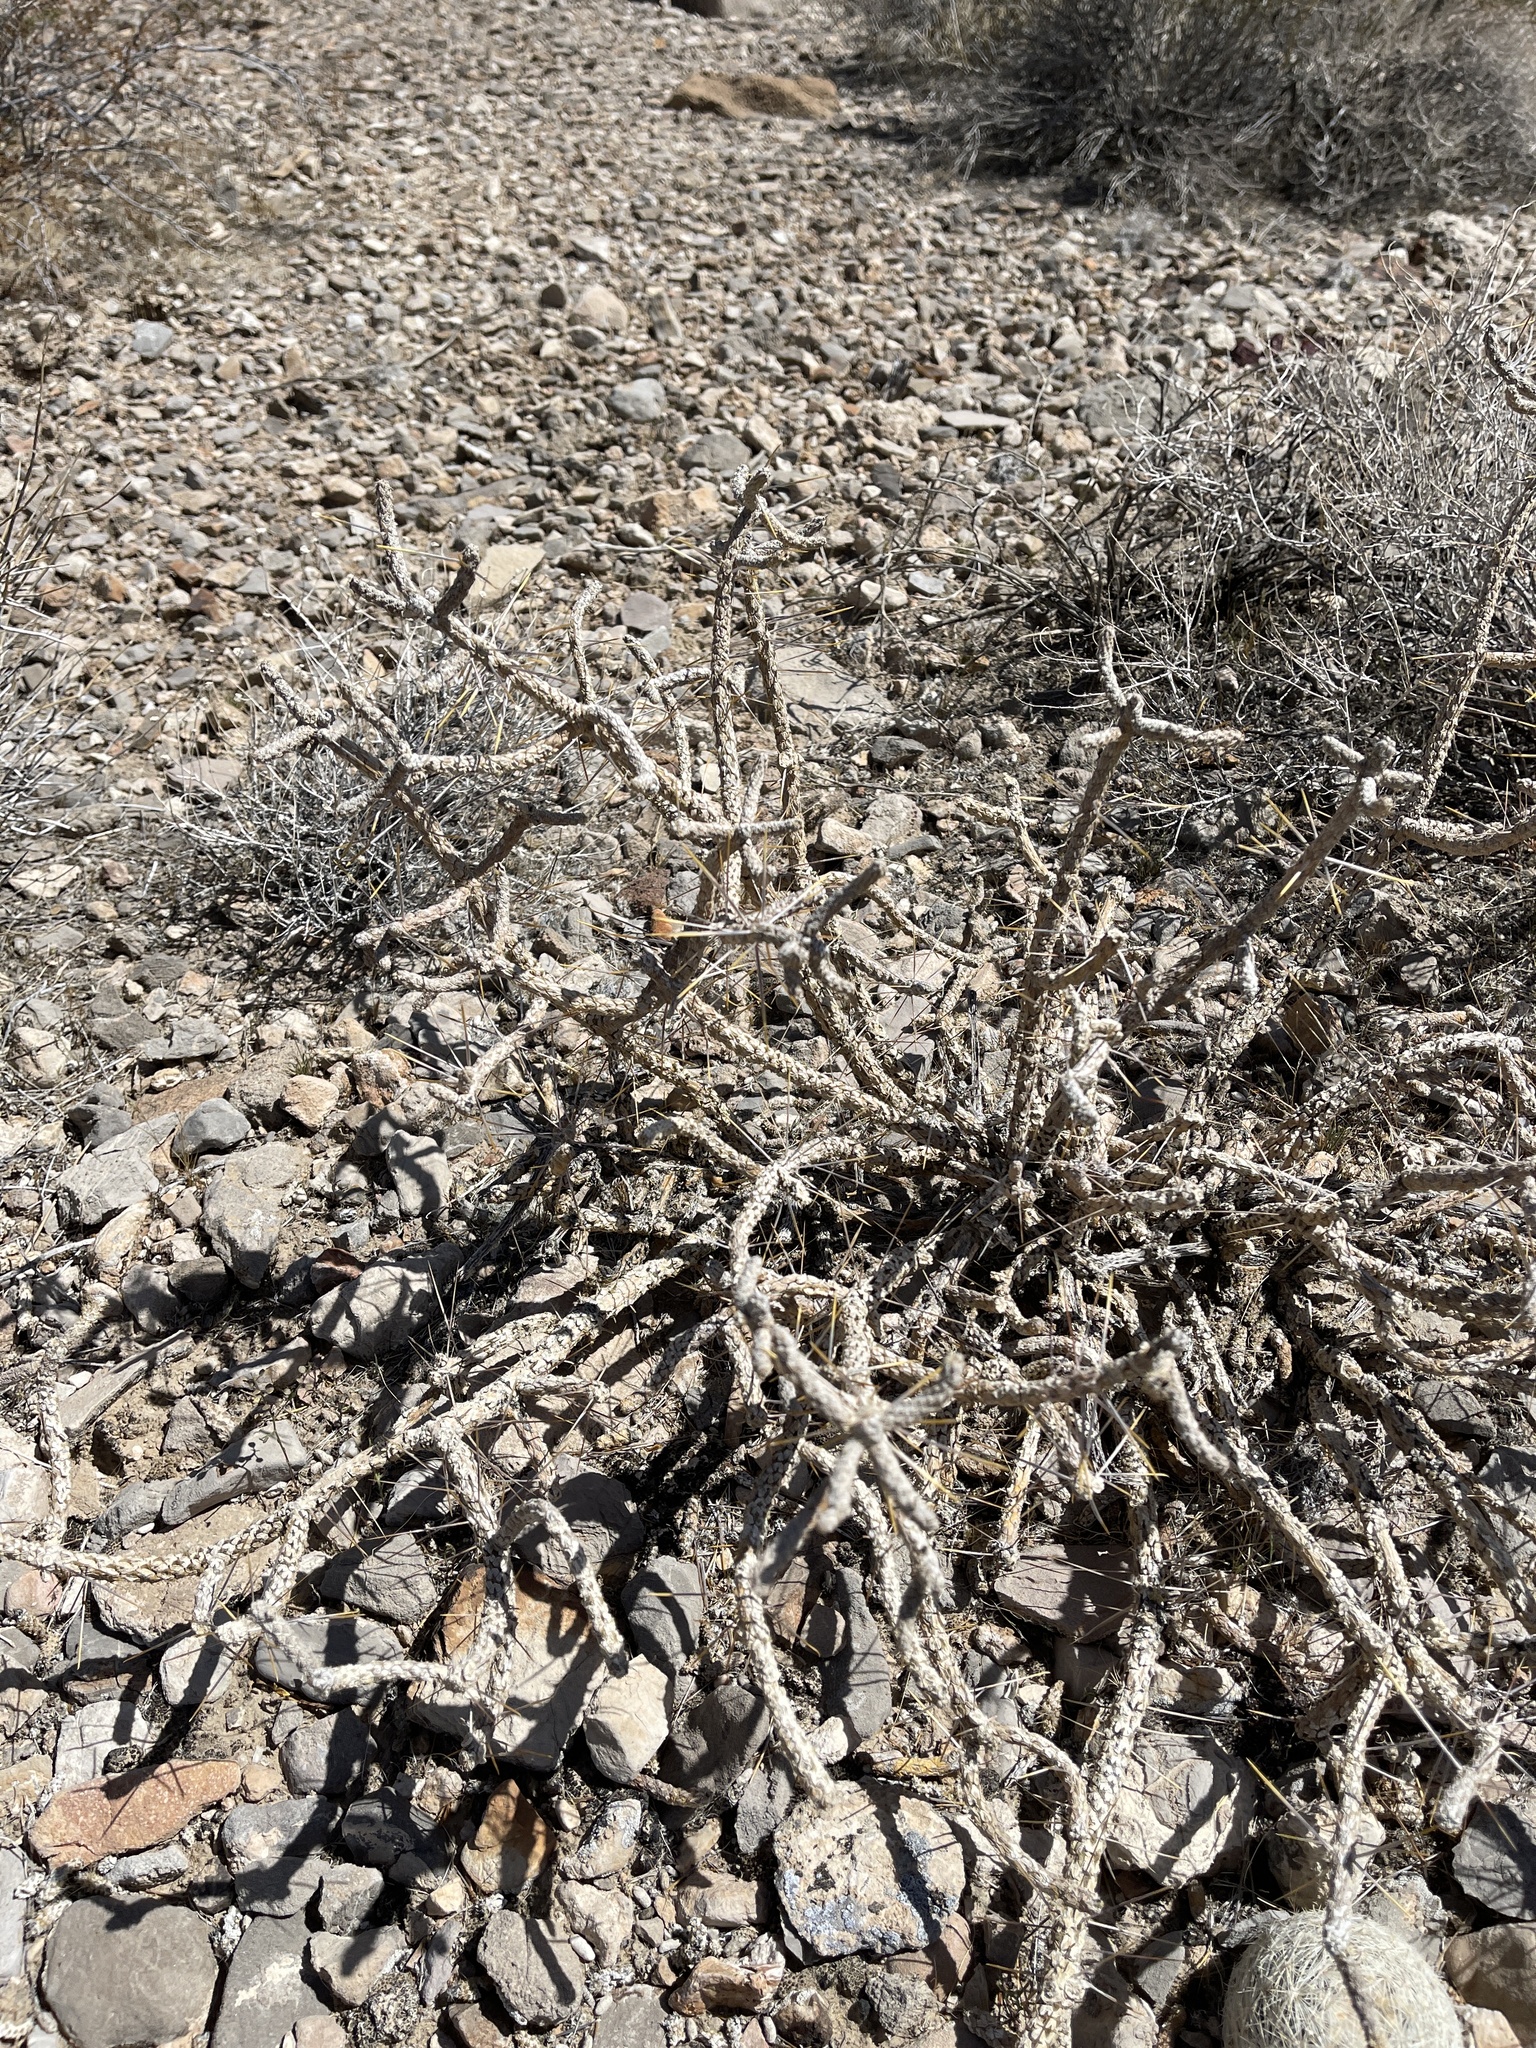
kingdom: Plantae
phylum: Tracheophyta
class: Magnoliopsida
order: Caryophyllales
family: Cactaceae
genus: Cylindropuntia
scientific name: Cylindropuntia ramosissima
